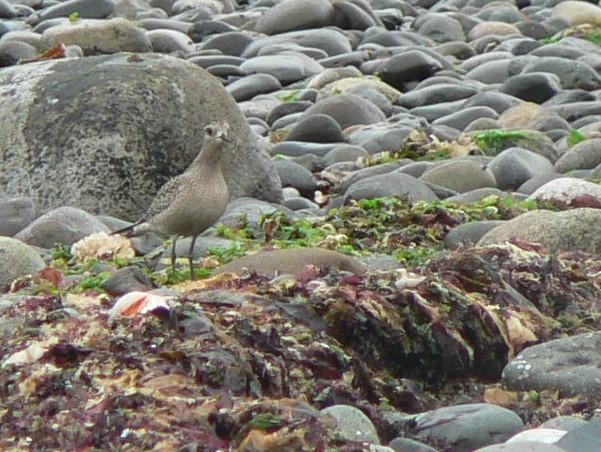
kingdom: Animalia
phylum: Chordata
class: Aves
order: Charadriiformes
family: Charadriidae
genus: Pluvialis
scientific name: Pluvialis dominica
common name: American golden plover
